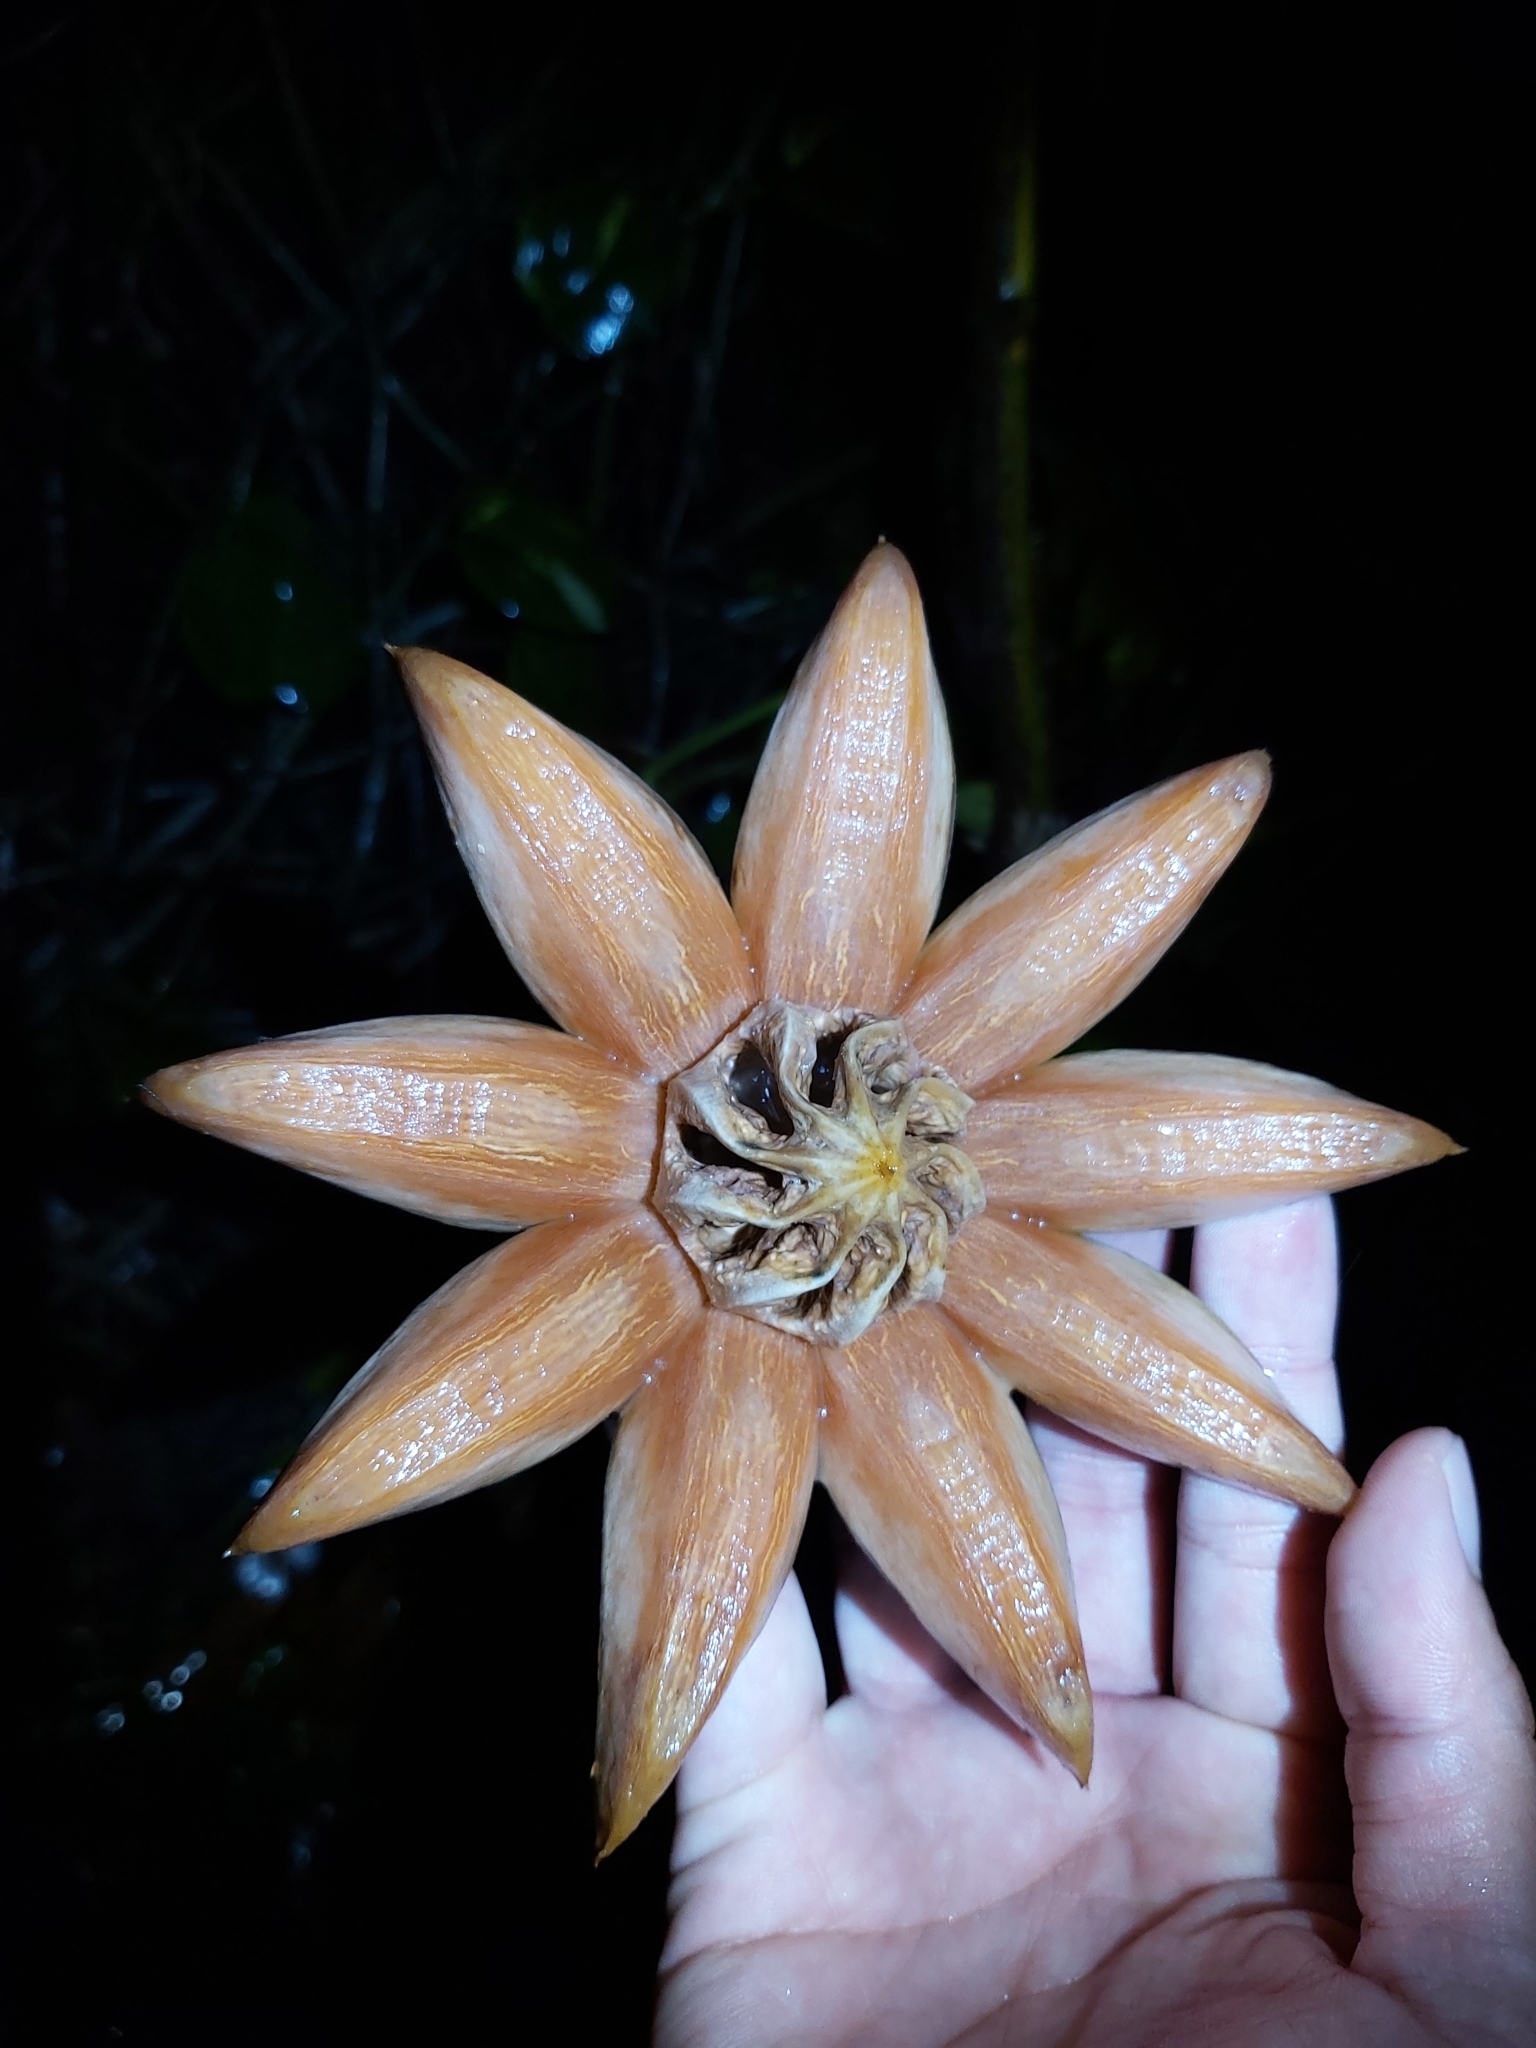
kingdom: Plantae
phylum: Tracheophyta
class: Magnoliopsida
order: Malpighiales
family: Clusiaceae
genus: Clusia
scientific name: Clusia rosea
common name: Scotch attorney
